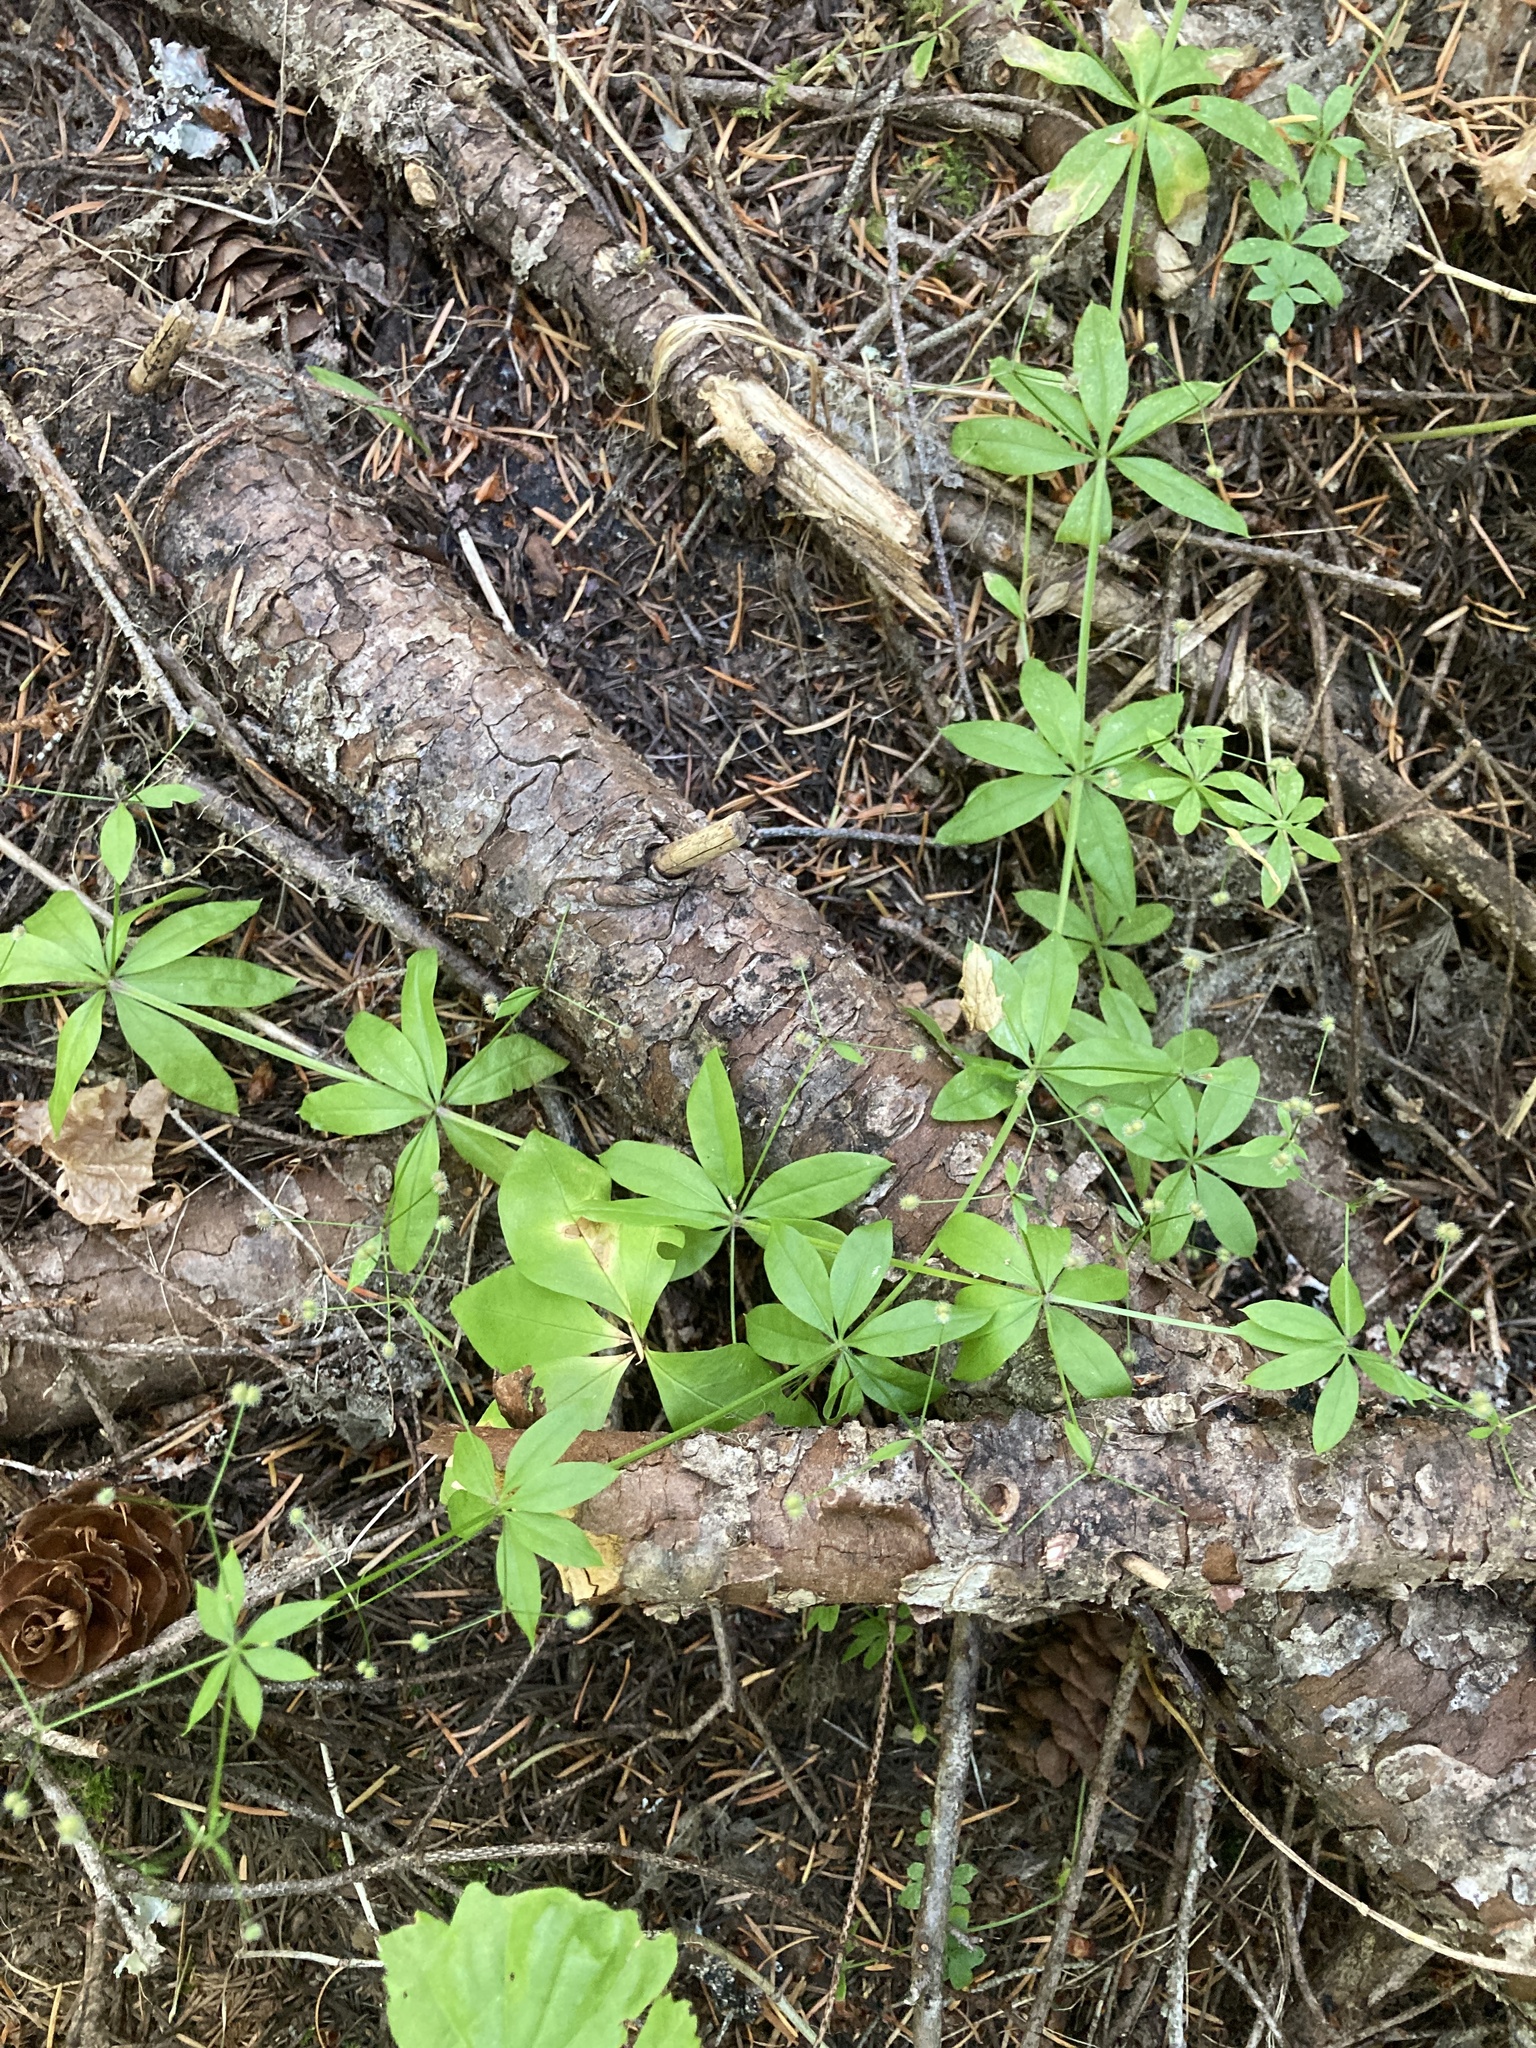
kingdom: Plantae
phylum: Tracheophyta
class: Magnoliopsida
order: Gentianales
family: Rubiaceae
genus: Galium
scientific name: Galium triflorum
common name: Fragrant bedstraw
